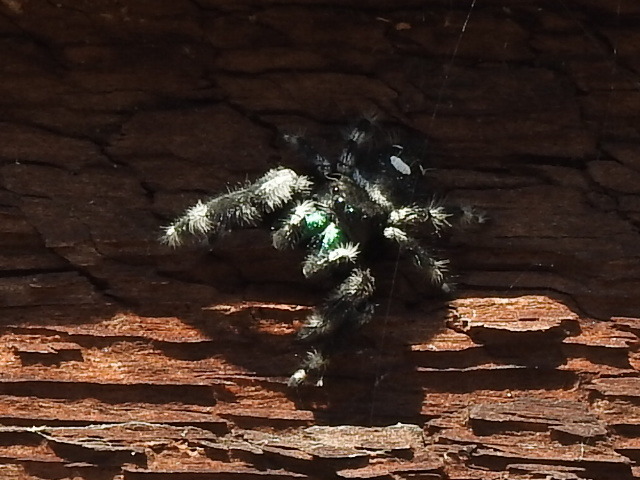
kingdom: Animalia
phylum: Arthropoda
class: Arachnida
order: Araneae
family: Salticidae
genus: Phidippus
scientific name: Phidippus audax
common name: Bold jumper
